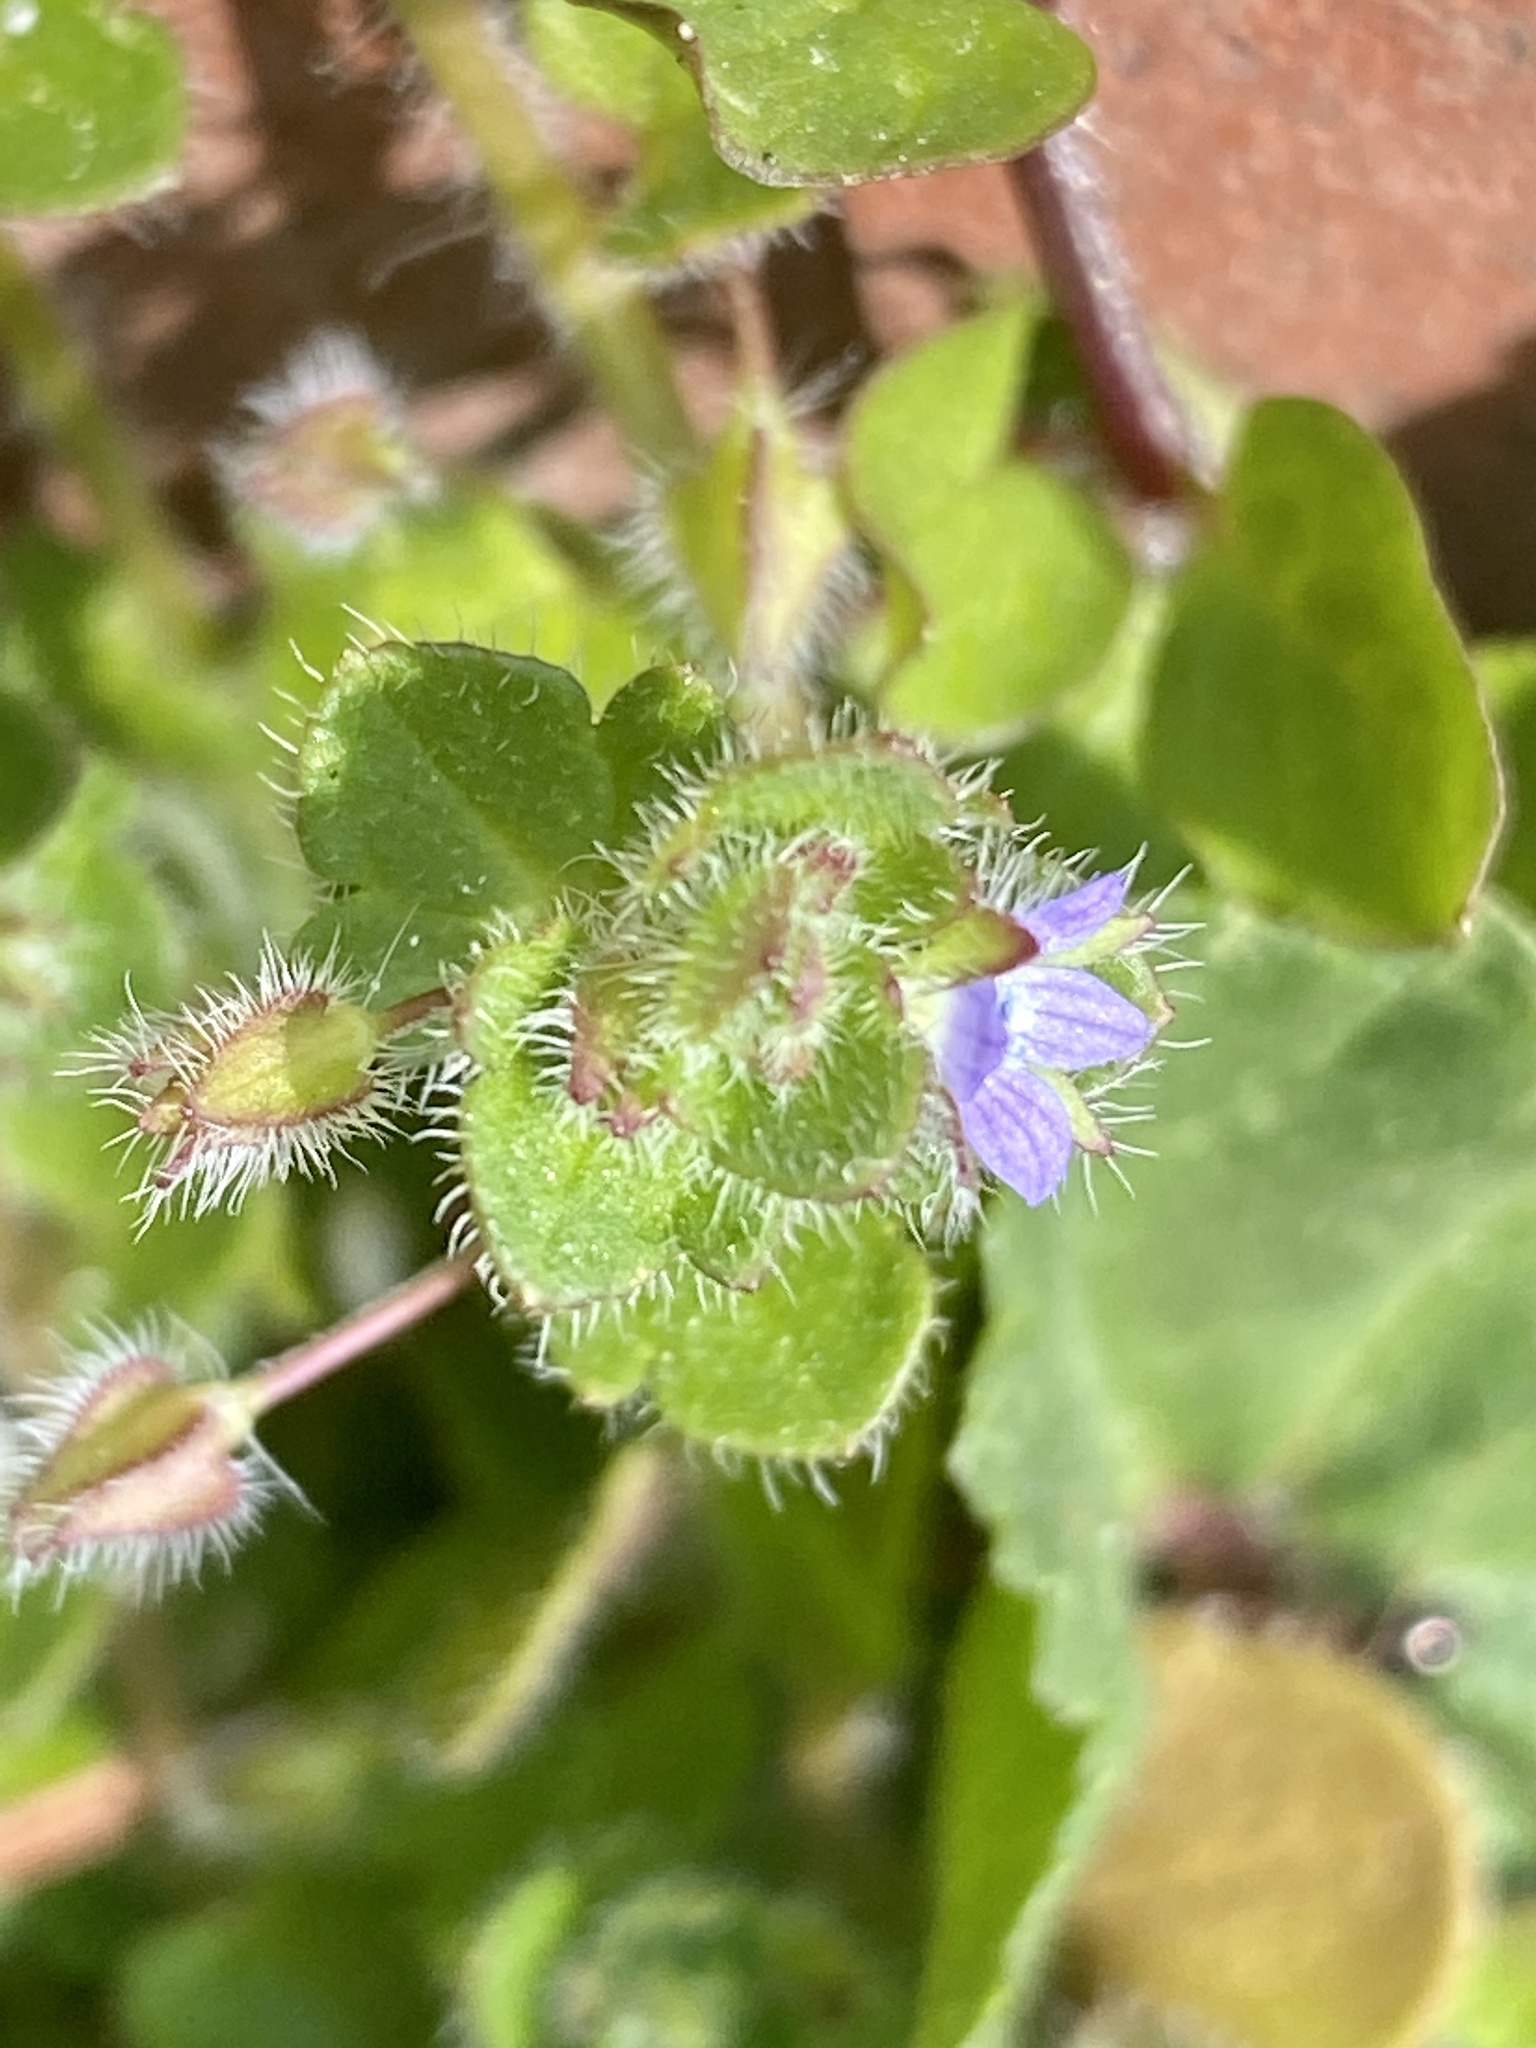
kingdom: Plantae
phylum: Tracheophyta
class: Magnoliopsida
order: Lamiales
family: Plantaginaceae
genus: Veronica
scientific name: Veronica hederifolia
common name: Ivy-leaved speedwell
